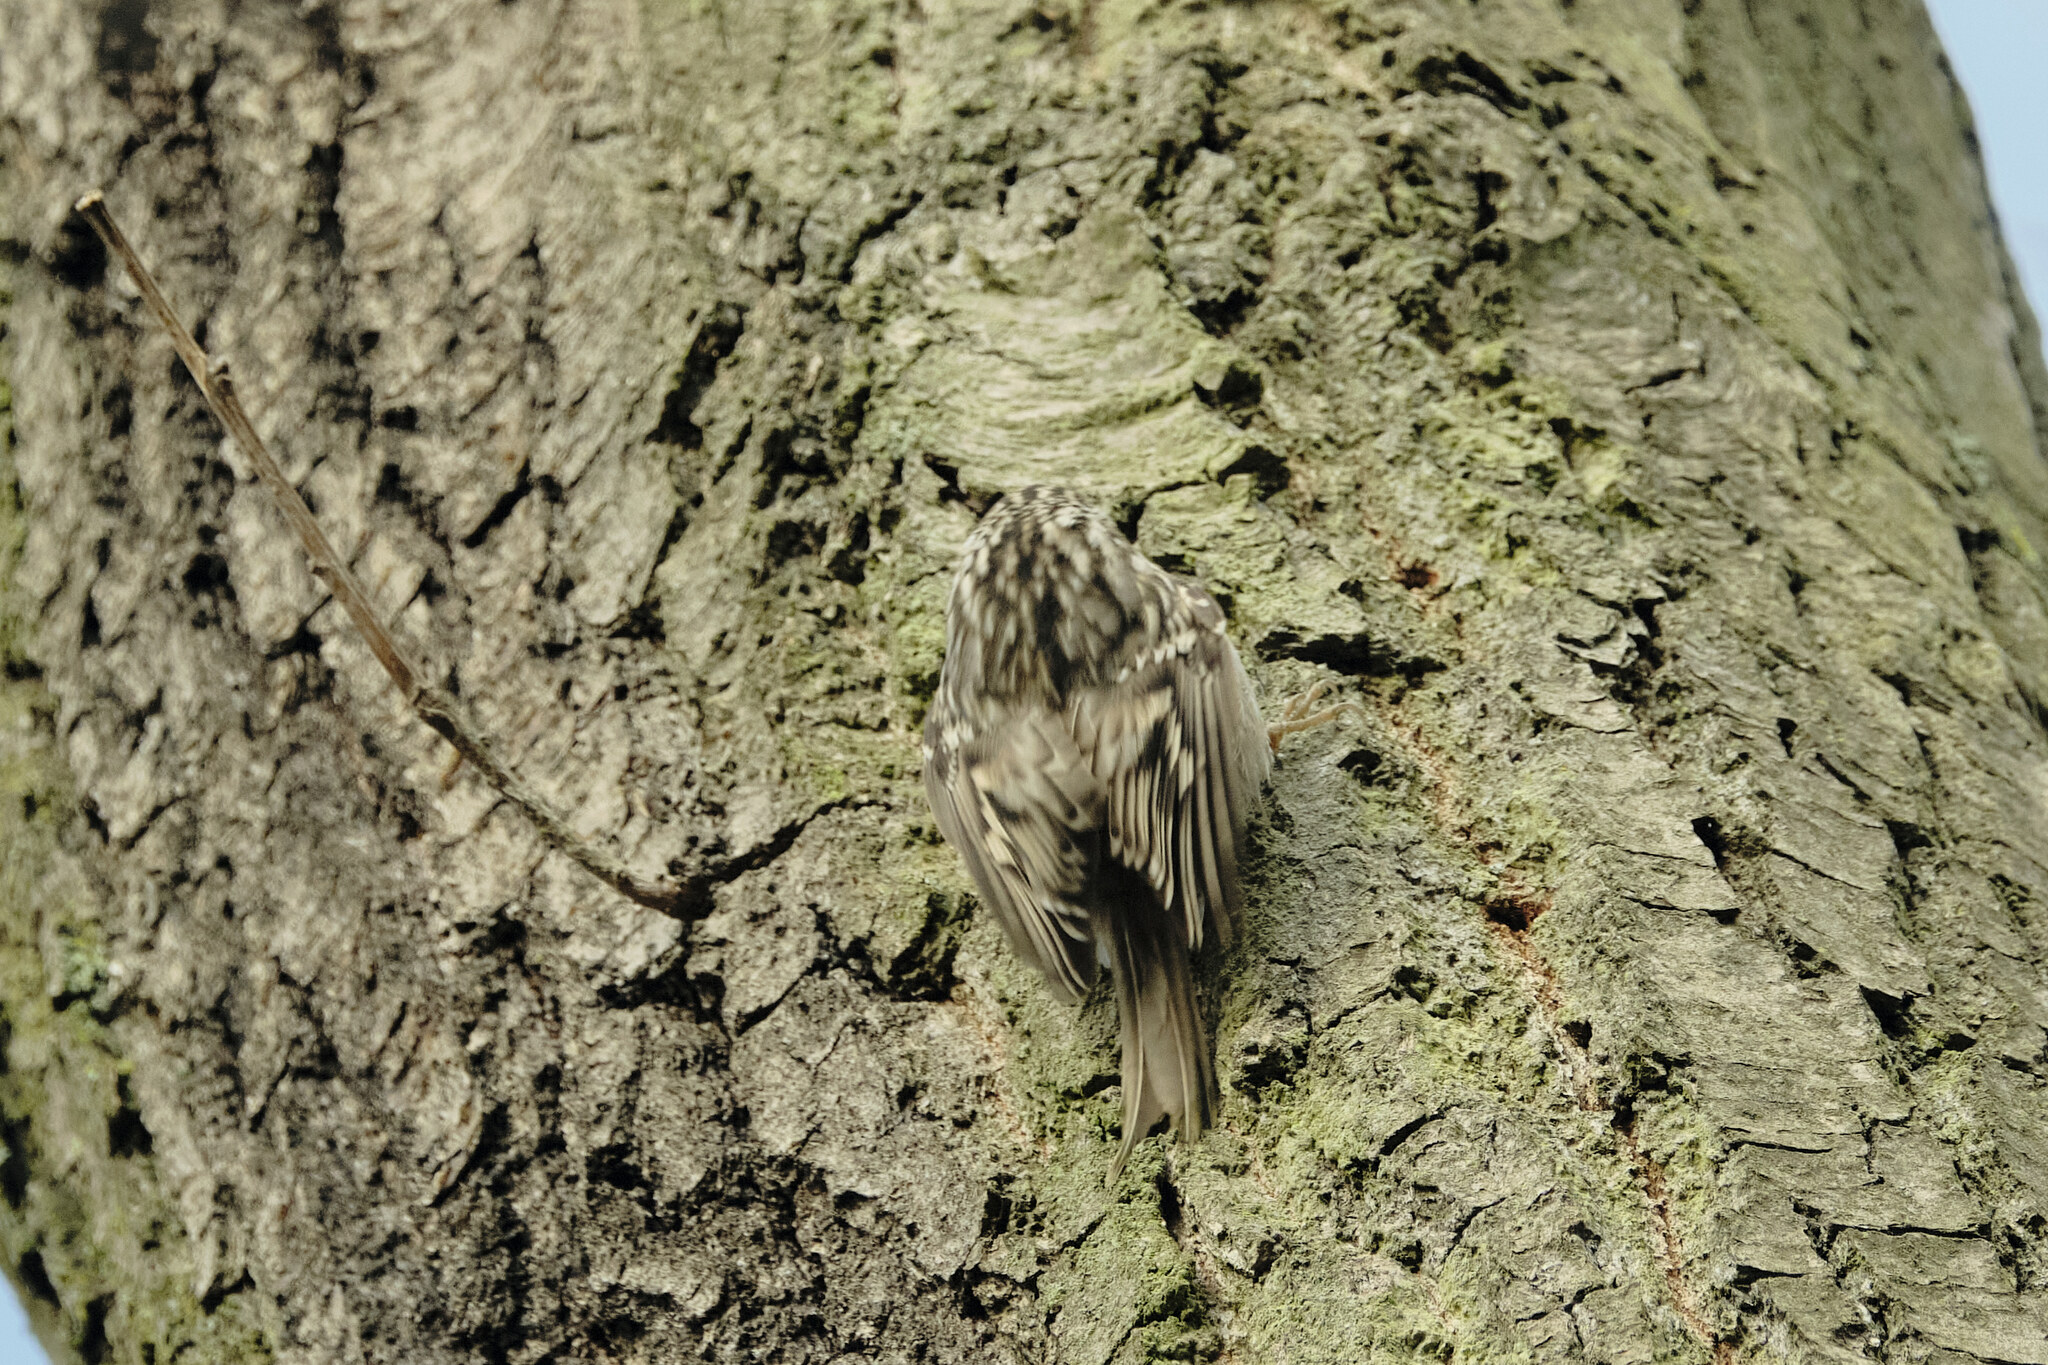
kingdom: Animalia
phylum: Chordata
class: Aves
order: Passeriformes
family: Certhiidae
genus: Certhia
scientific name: Certhia brachydactyla
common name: Short-toed treecreeper
